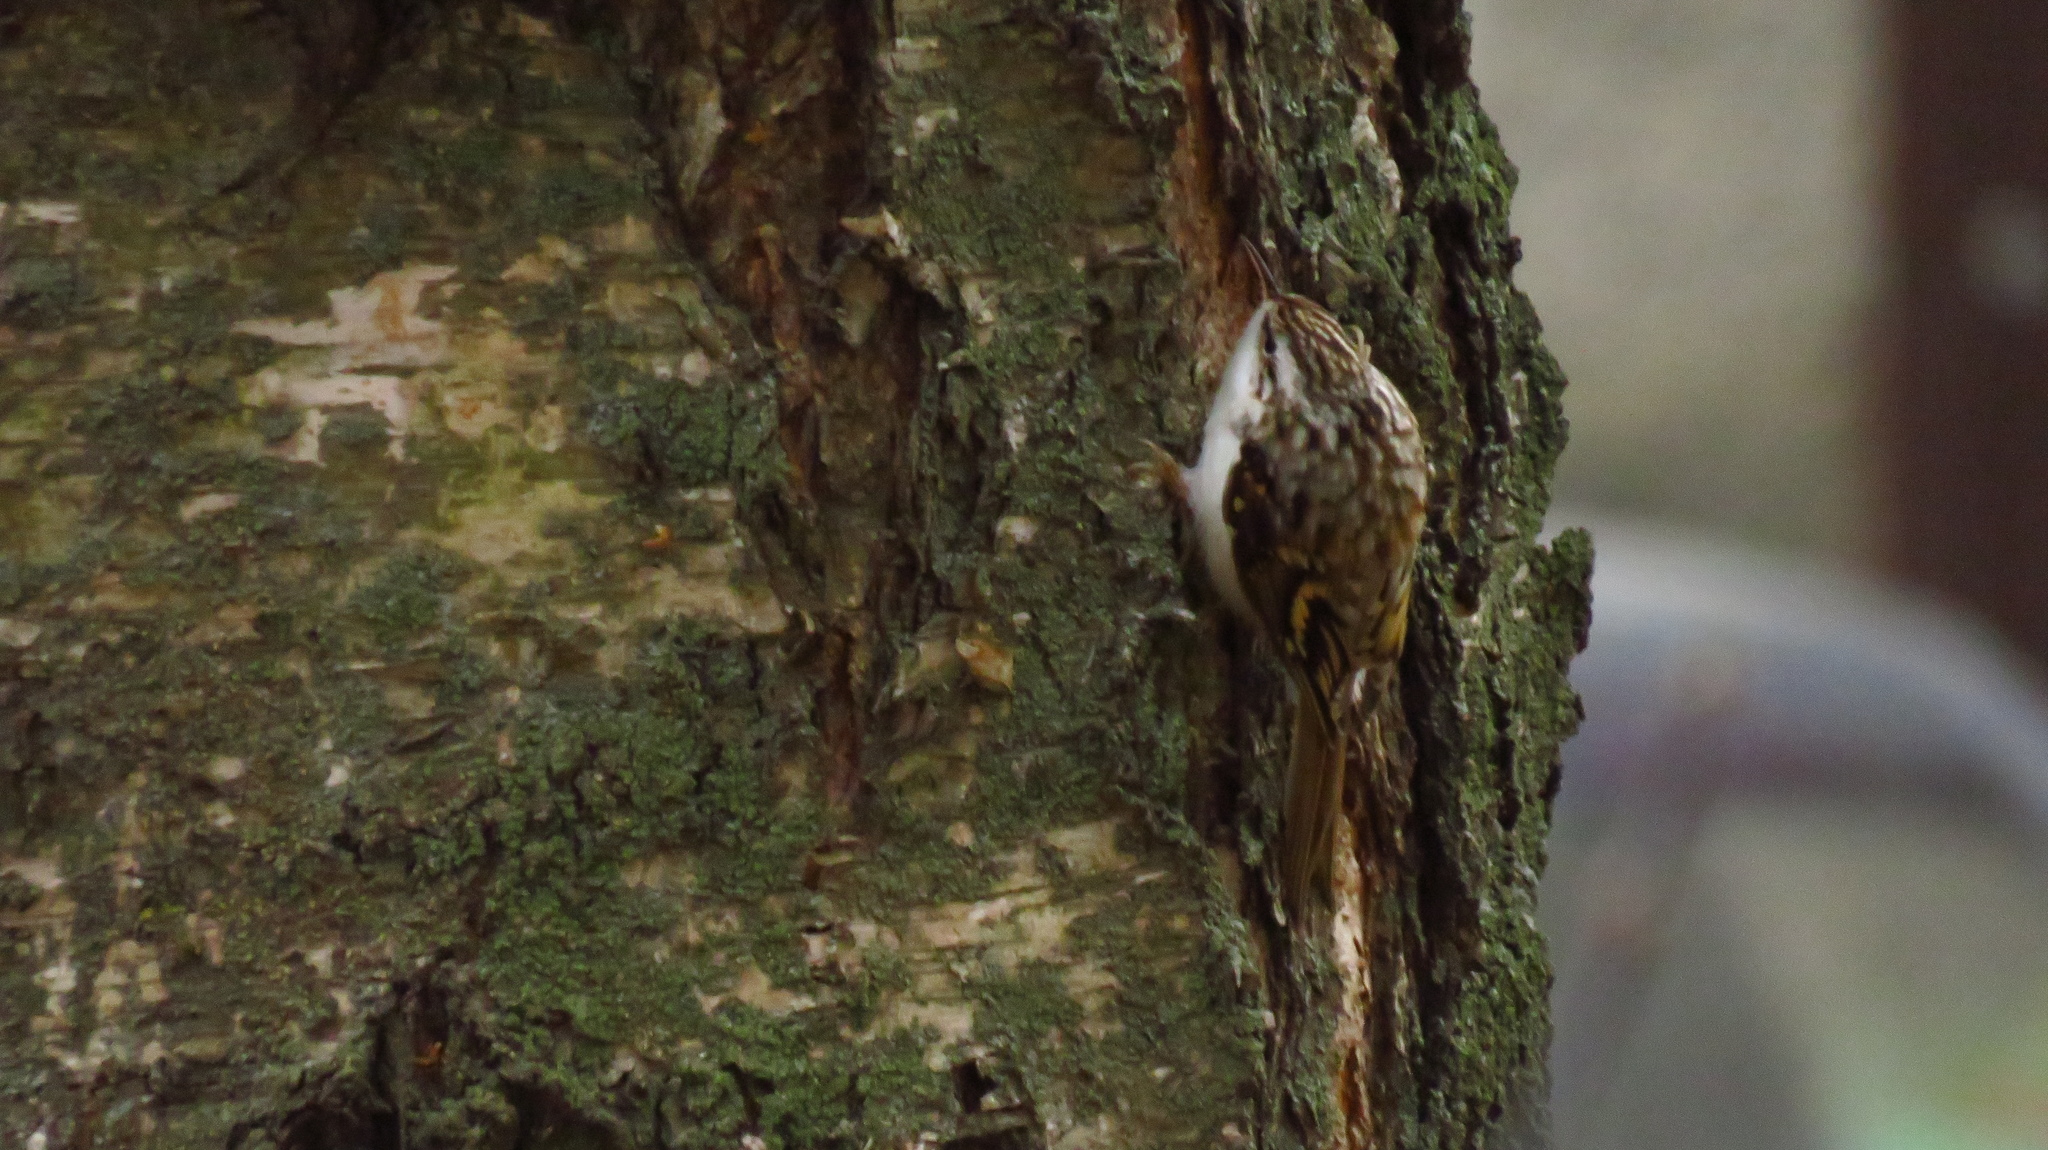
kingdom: Animalia
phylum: Chordata
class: Aves
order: Passeriformes
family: Certhiidae
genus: Certhia
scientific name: Certhia familiaris
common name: Eurasian treecreeper
